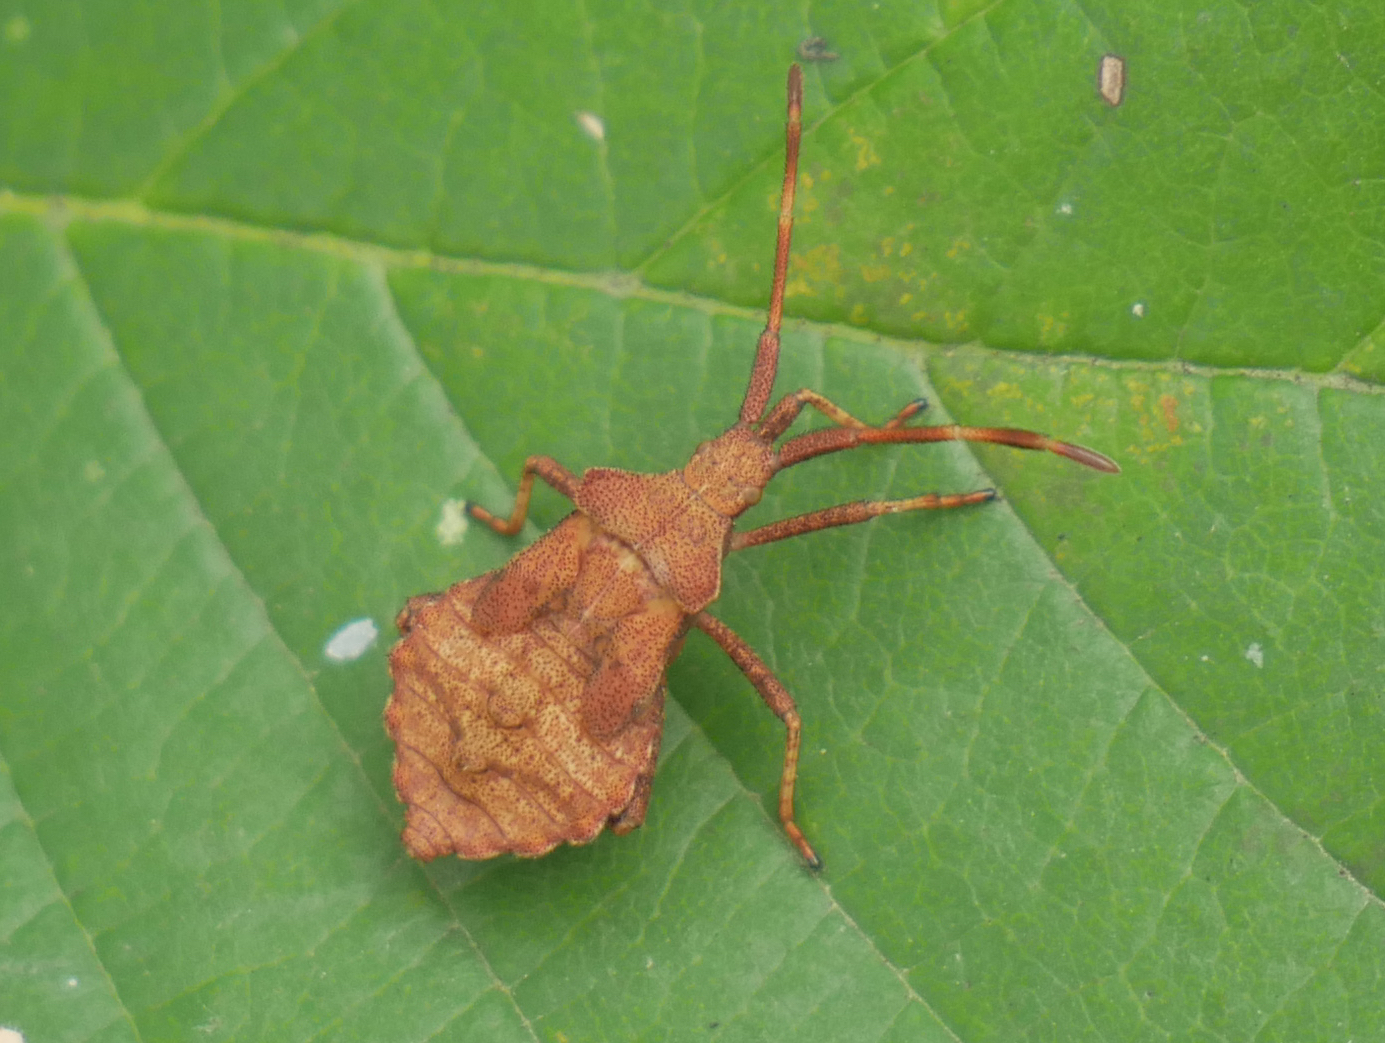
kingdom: Animalia
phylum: Arthropoda
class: Insecta
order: Hemiptera
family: Coreidae
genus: Coreus
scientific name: Coreus marginatus
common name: Dock bug
